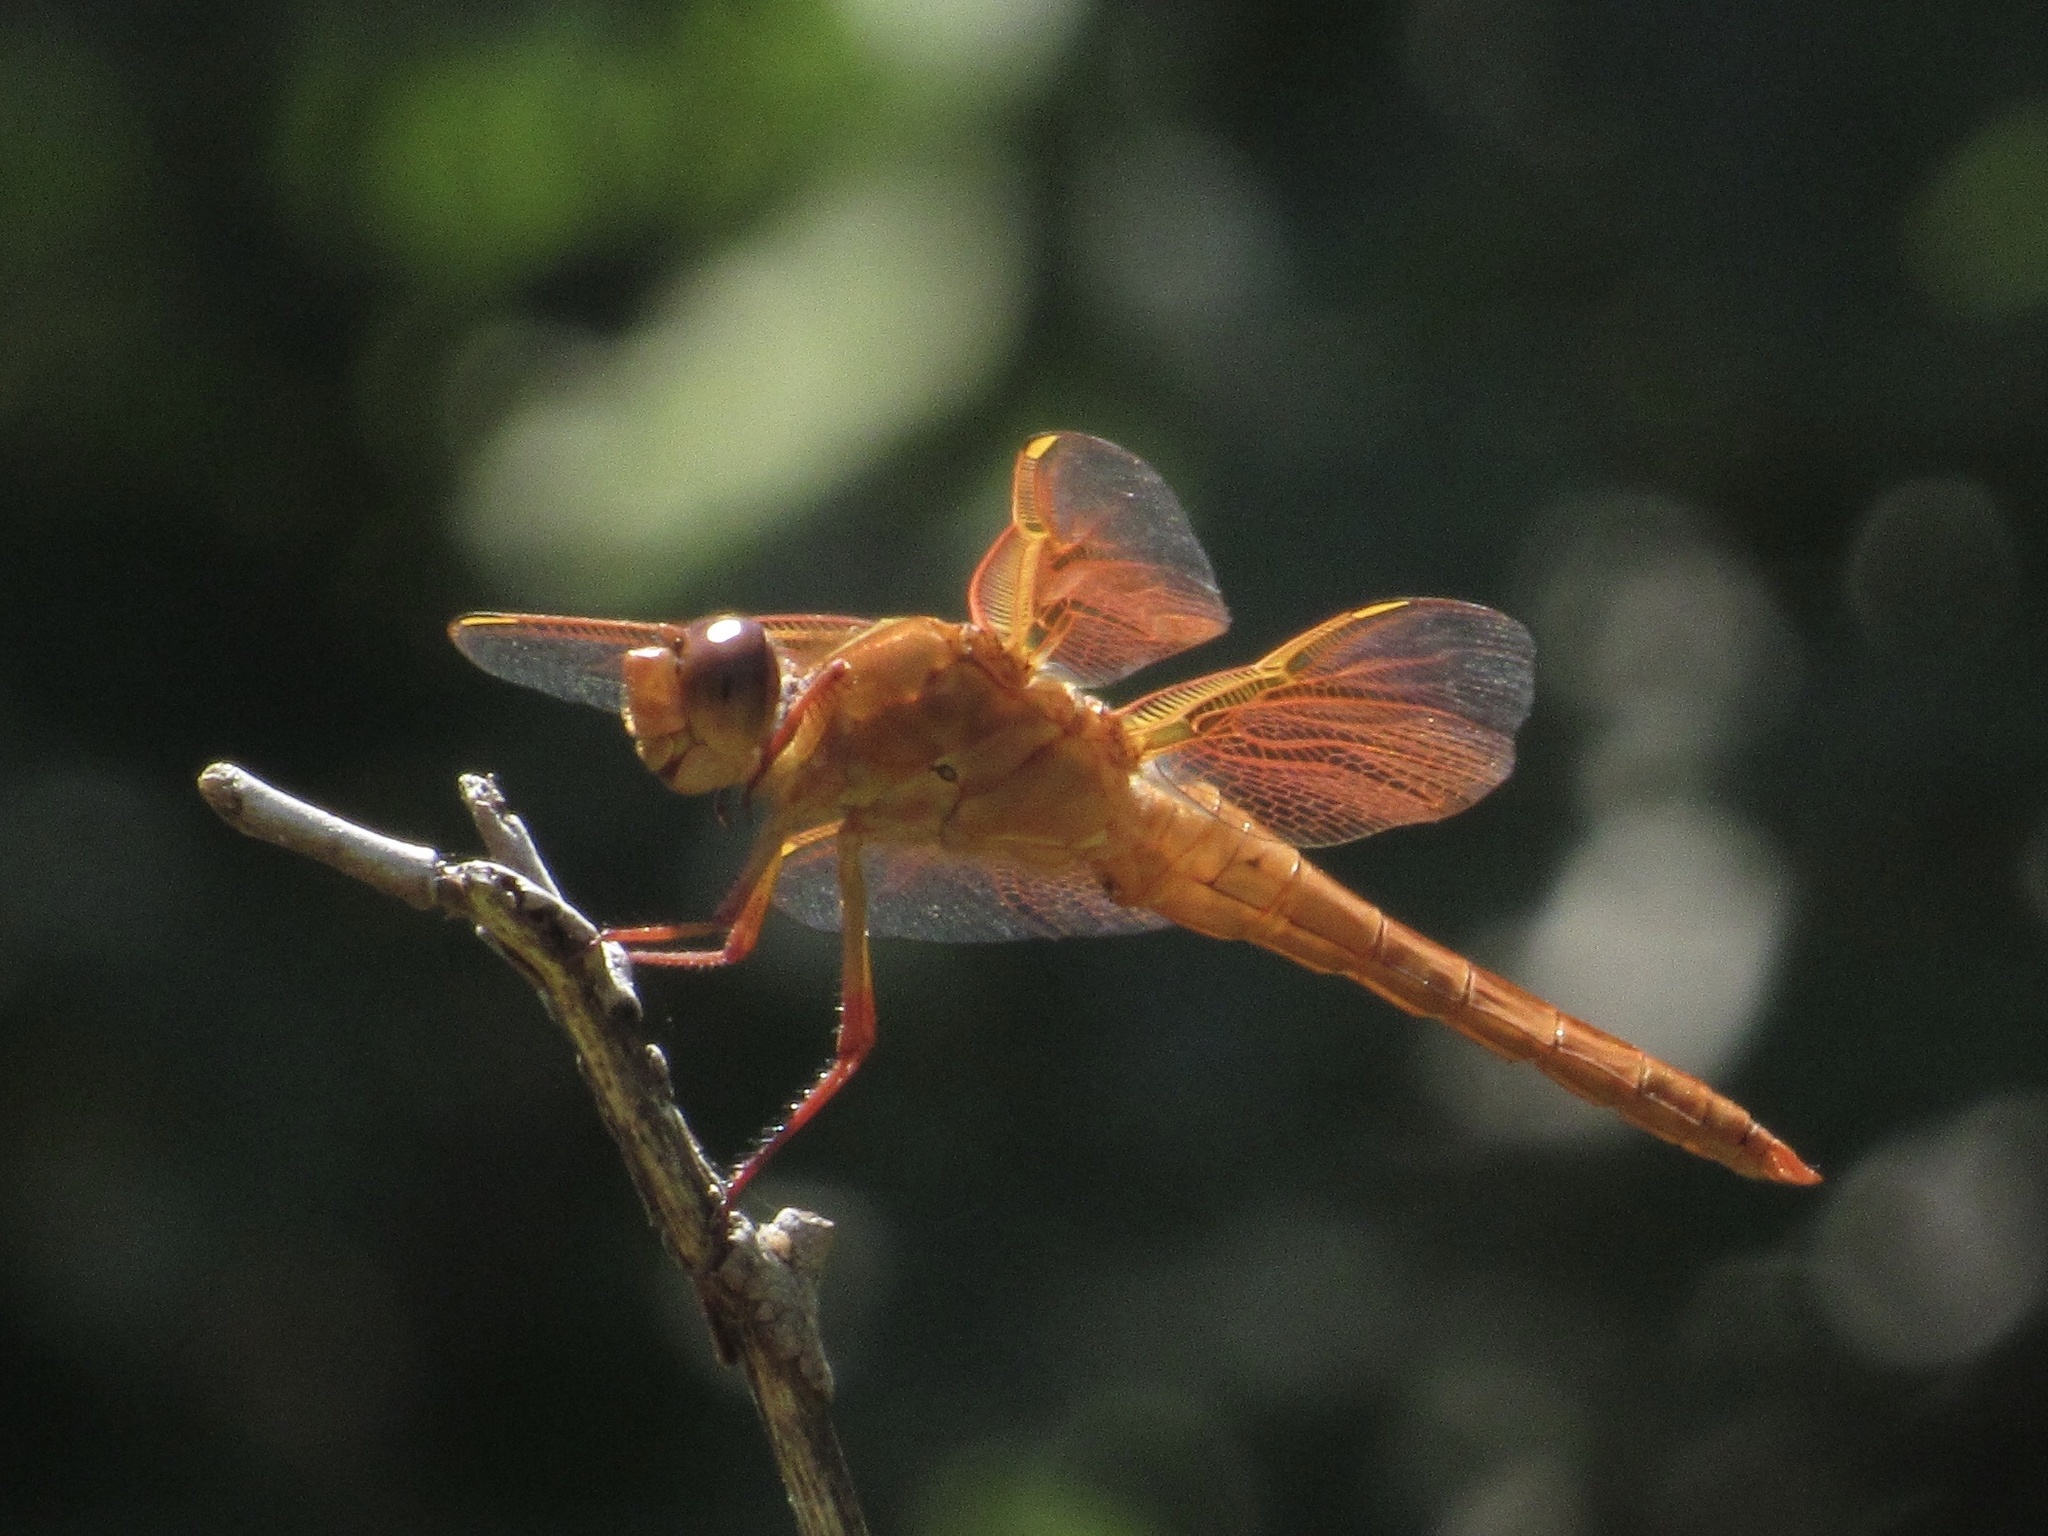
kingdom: Animalia
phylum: Arthropoda
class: Insecta
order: Odonata
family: Libellulidae
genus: Libellula
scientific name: Libellula saturata
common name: Flame skimmer
